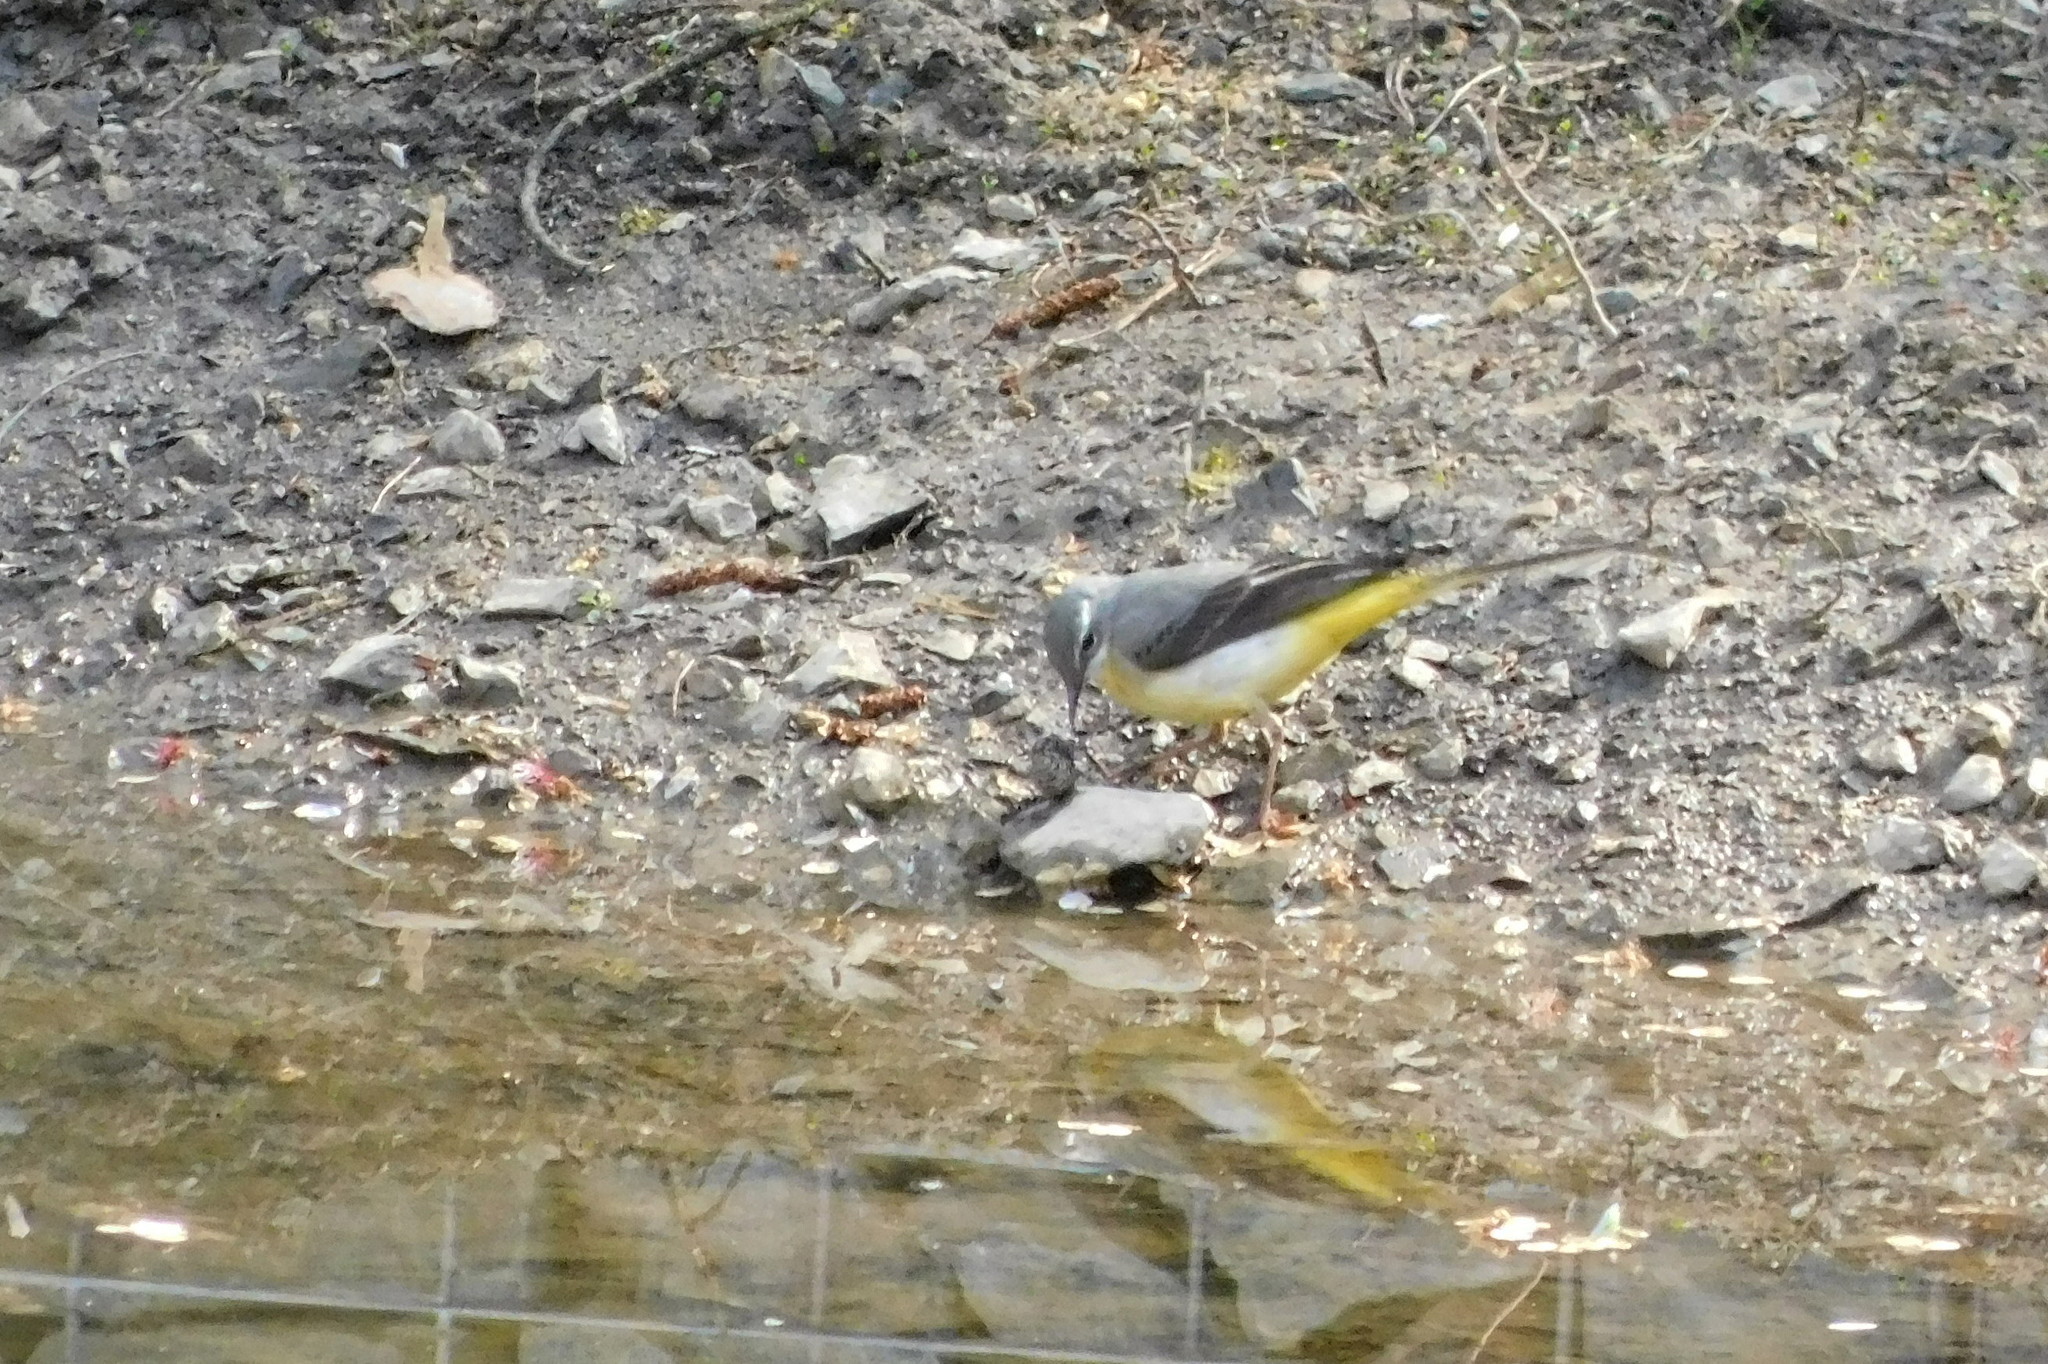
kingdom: Animalia
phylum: Chordata
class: Aves
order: Passeriformes
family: Motacillidae
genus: Motacilla
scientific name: Motacilla cinerea
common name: Grey wagtail
